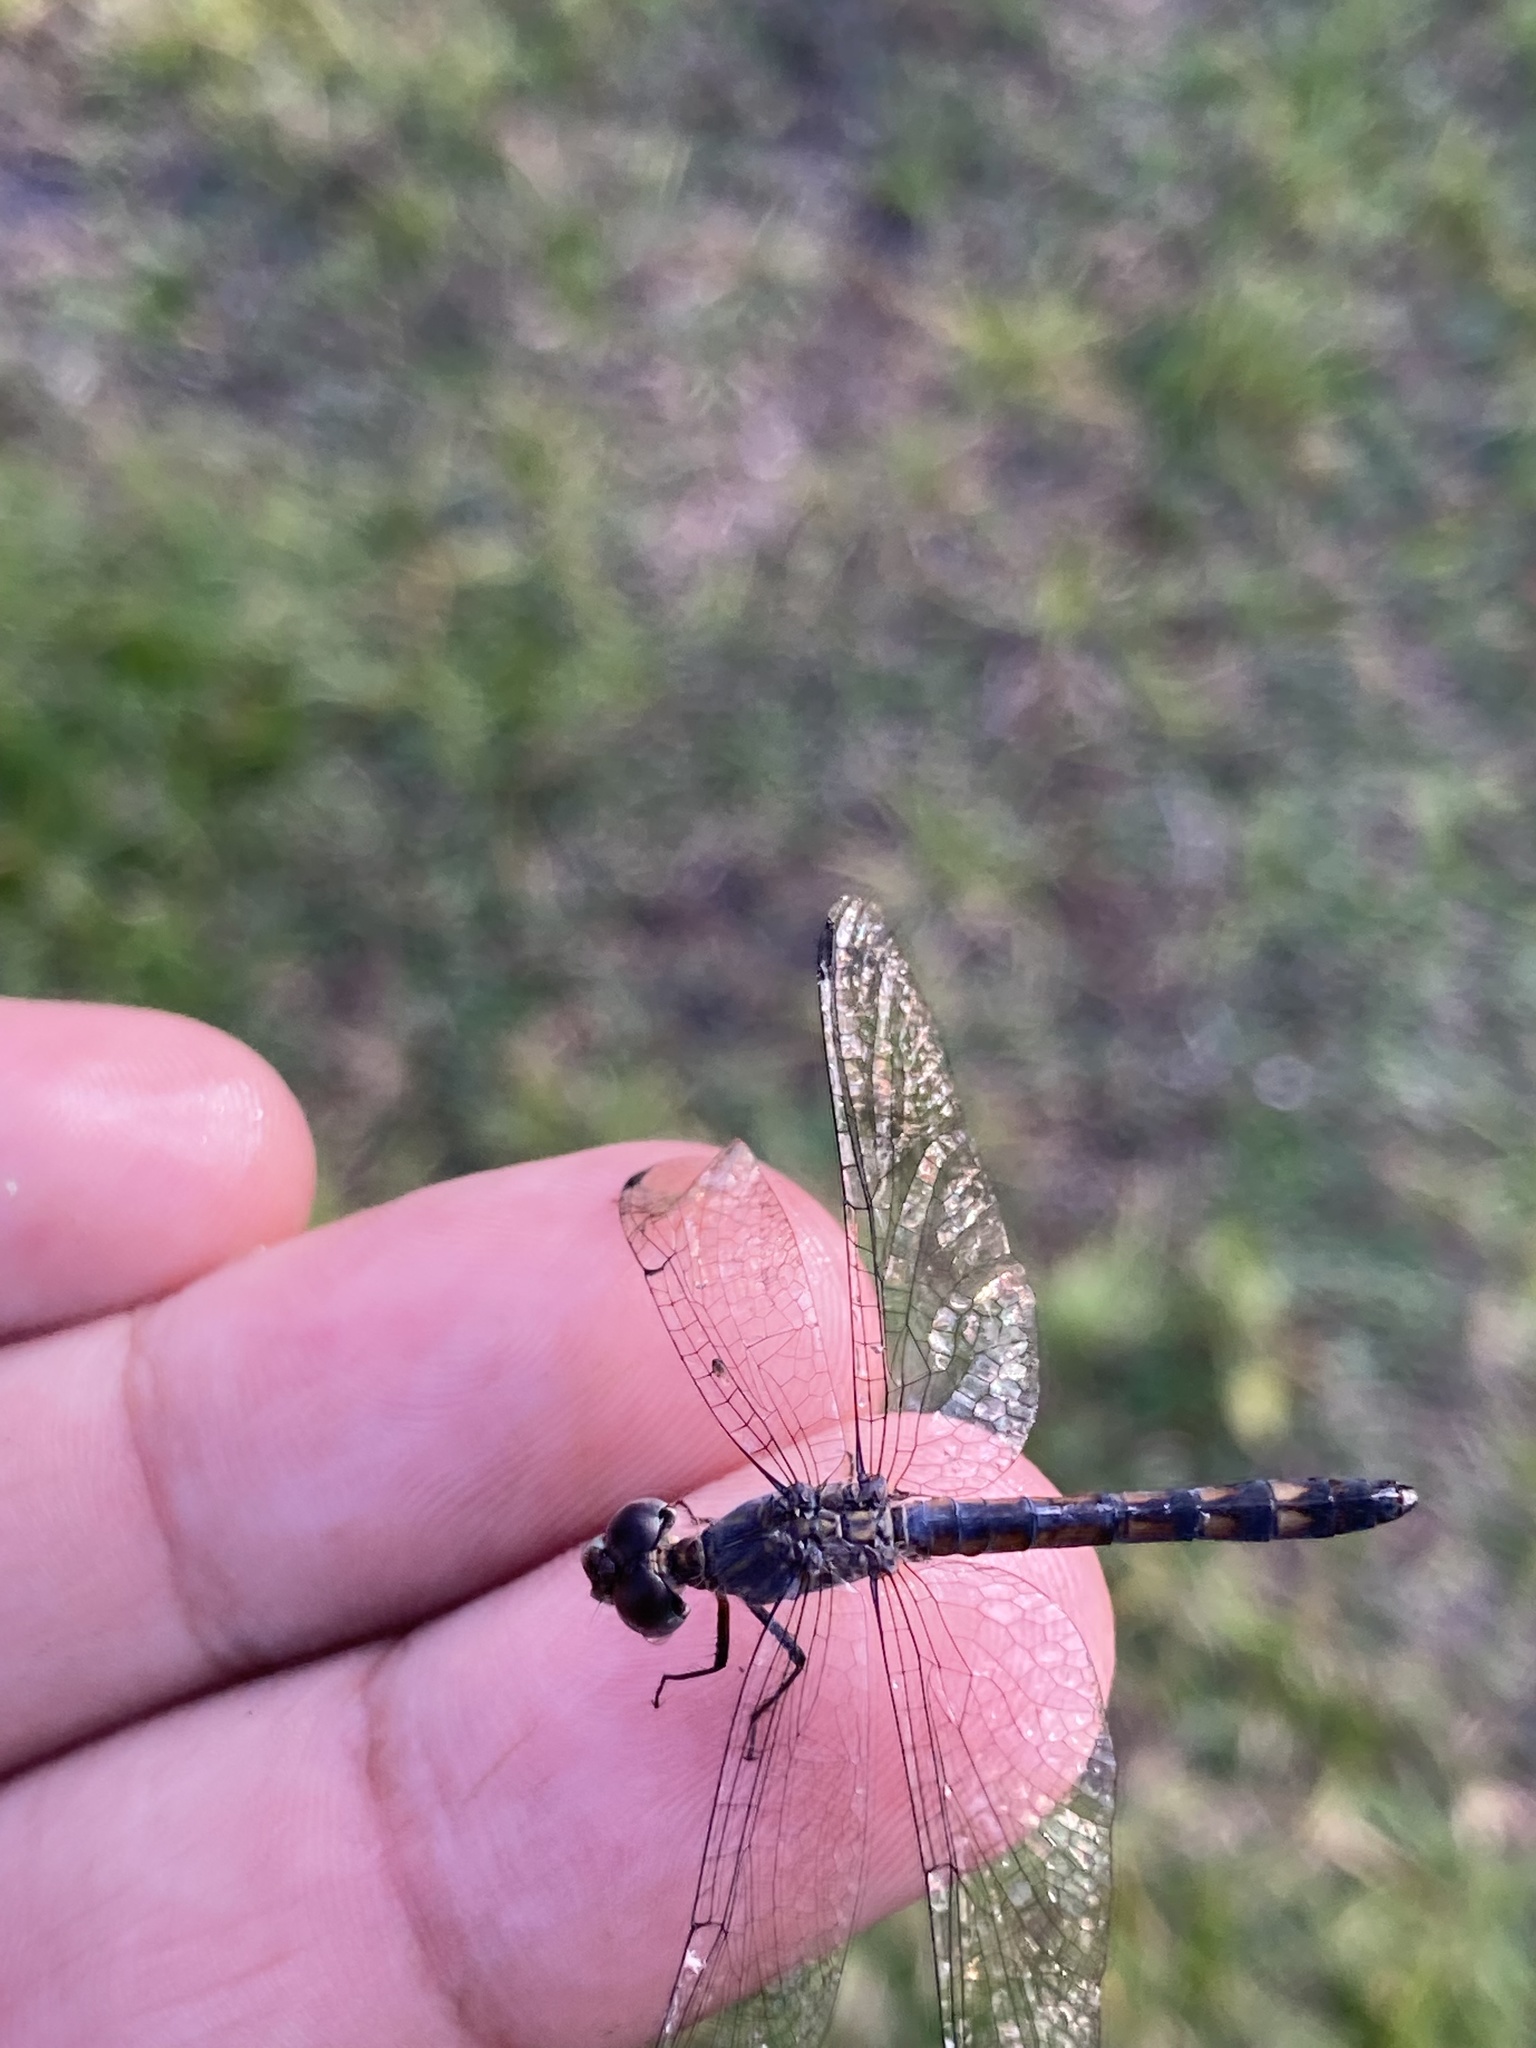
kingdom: Animalia
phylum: Arthropoda
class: Insecta
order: Odonata
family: Libellulidae
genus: Micrathyria
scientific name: Micrathyria aequalis
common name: Spot-tailed dasher
